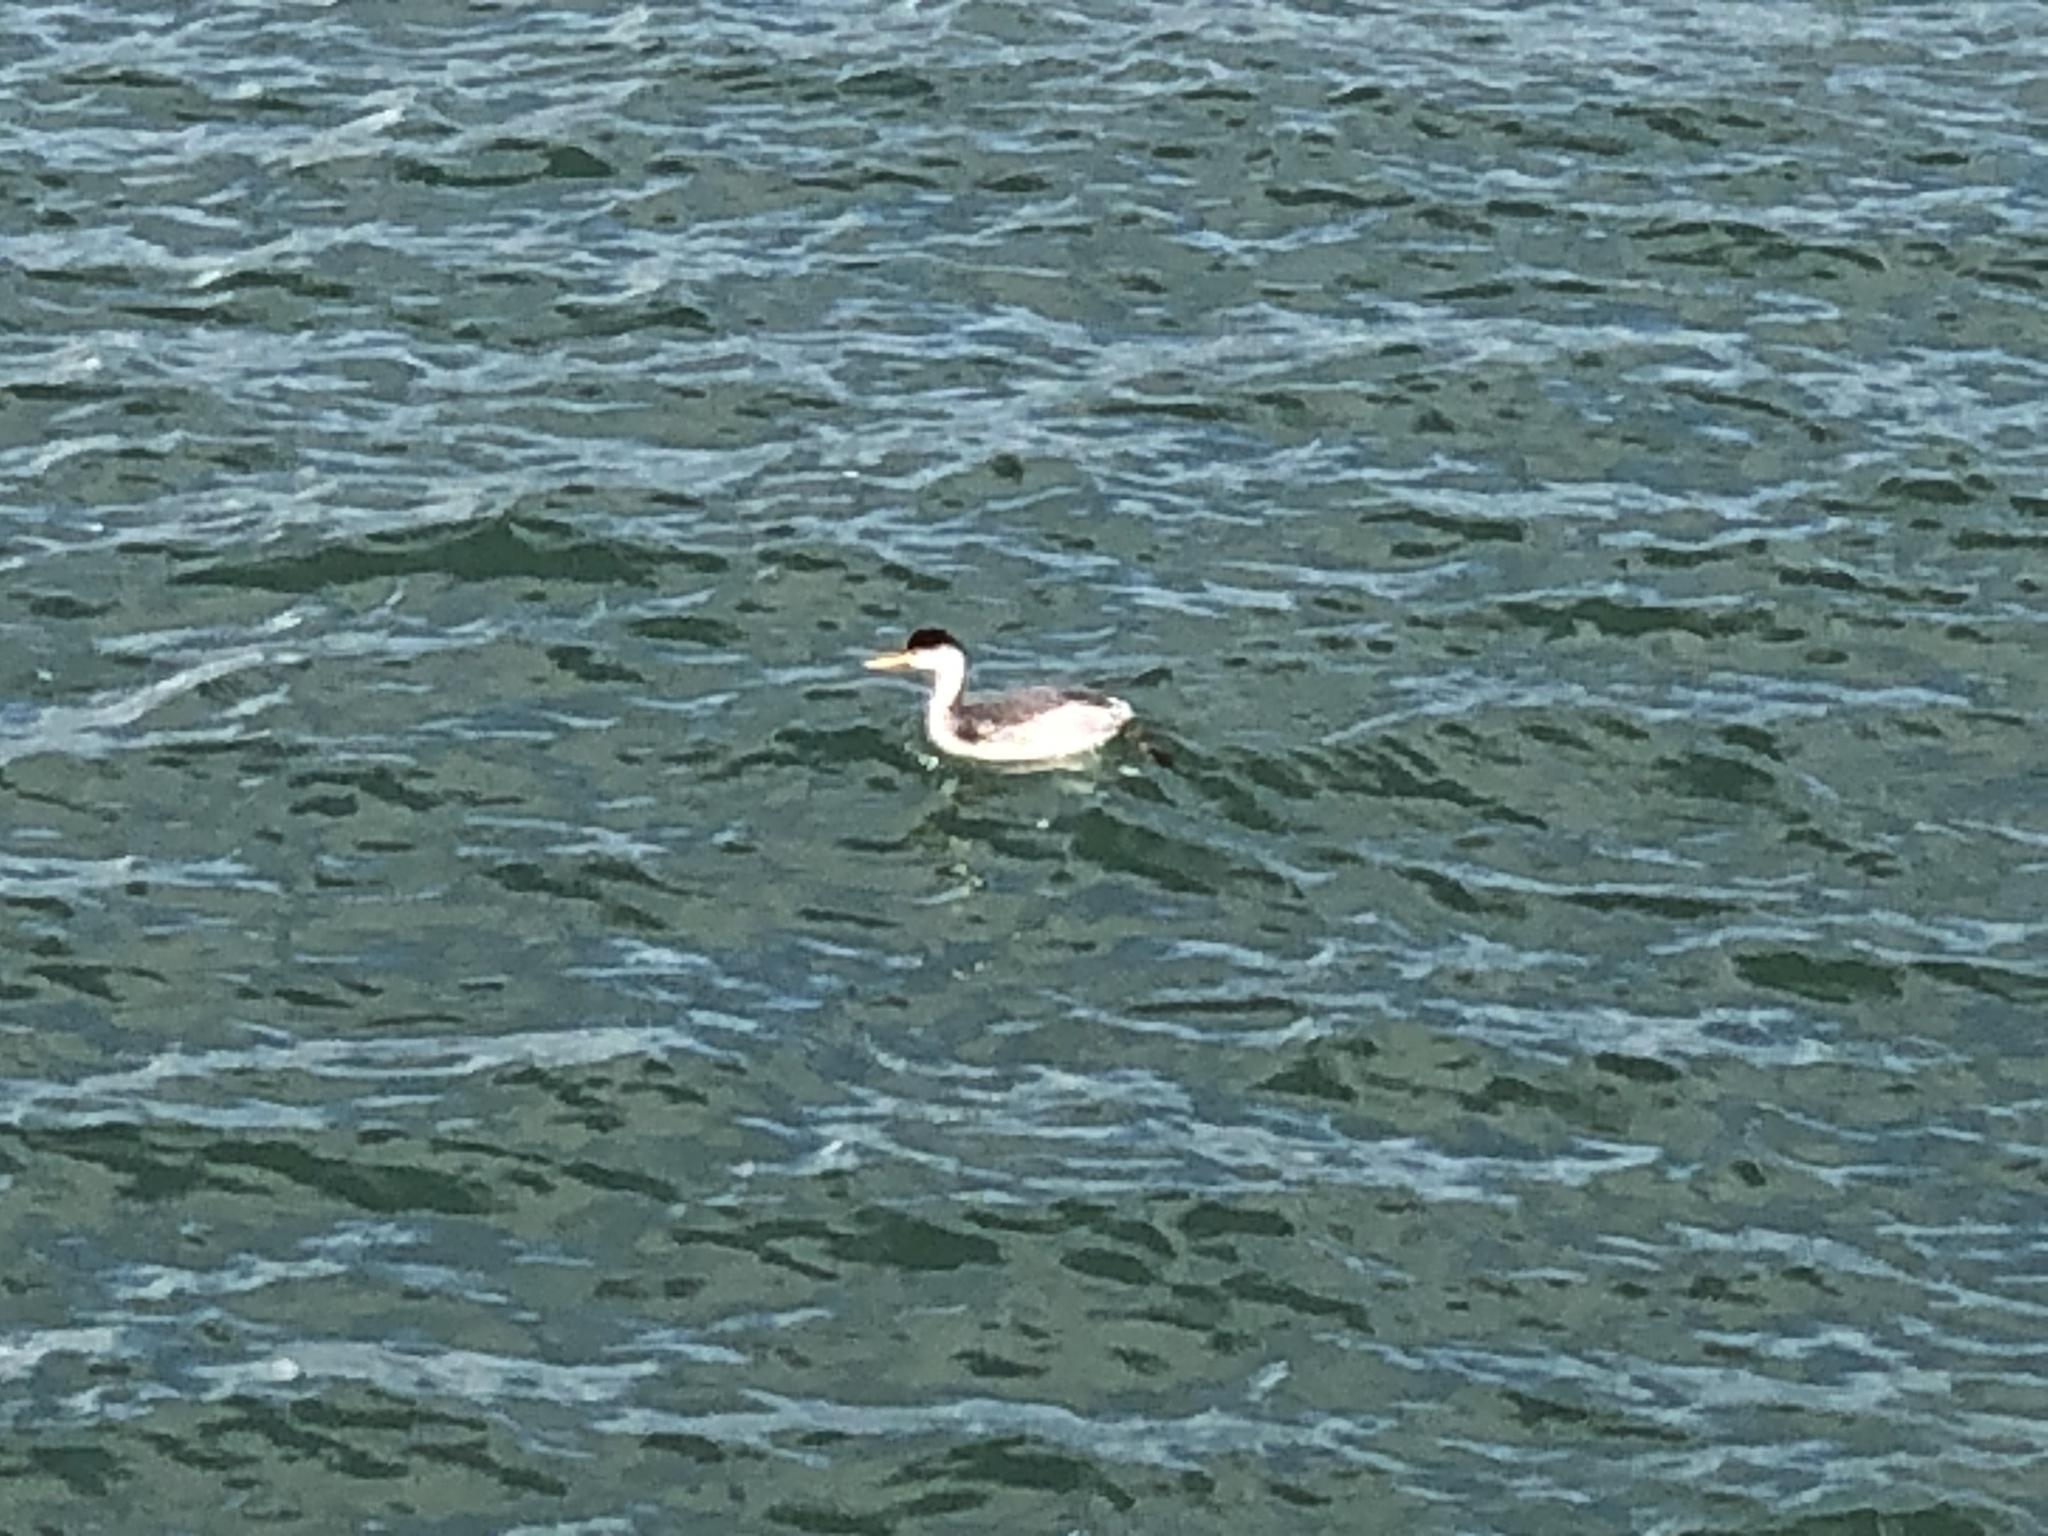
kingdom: Animalia
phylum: Chordata
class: Aves
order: Podicipediformes
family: Podicipedidae
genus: Aechmophorus
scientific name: Aechmophorus clarkii
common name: Clark's grebe
